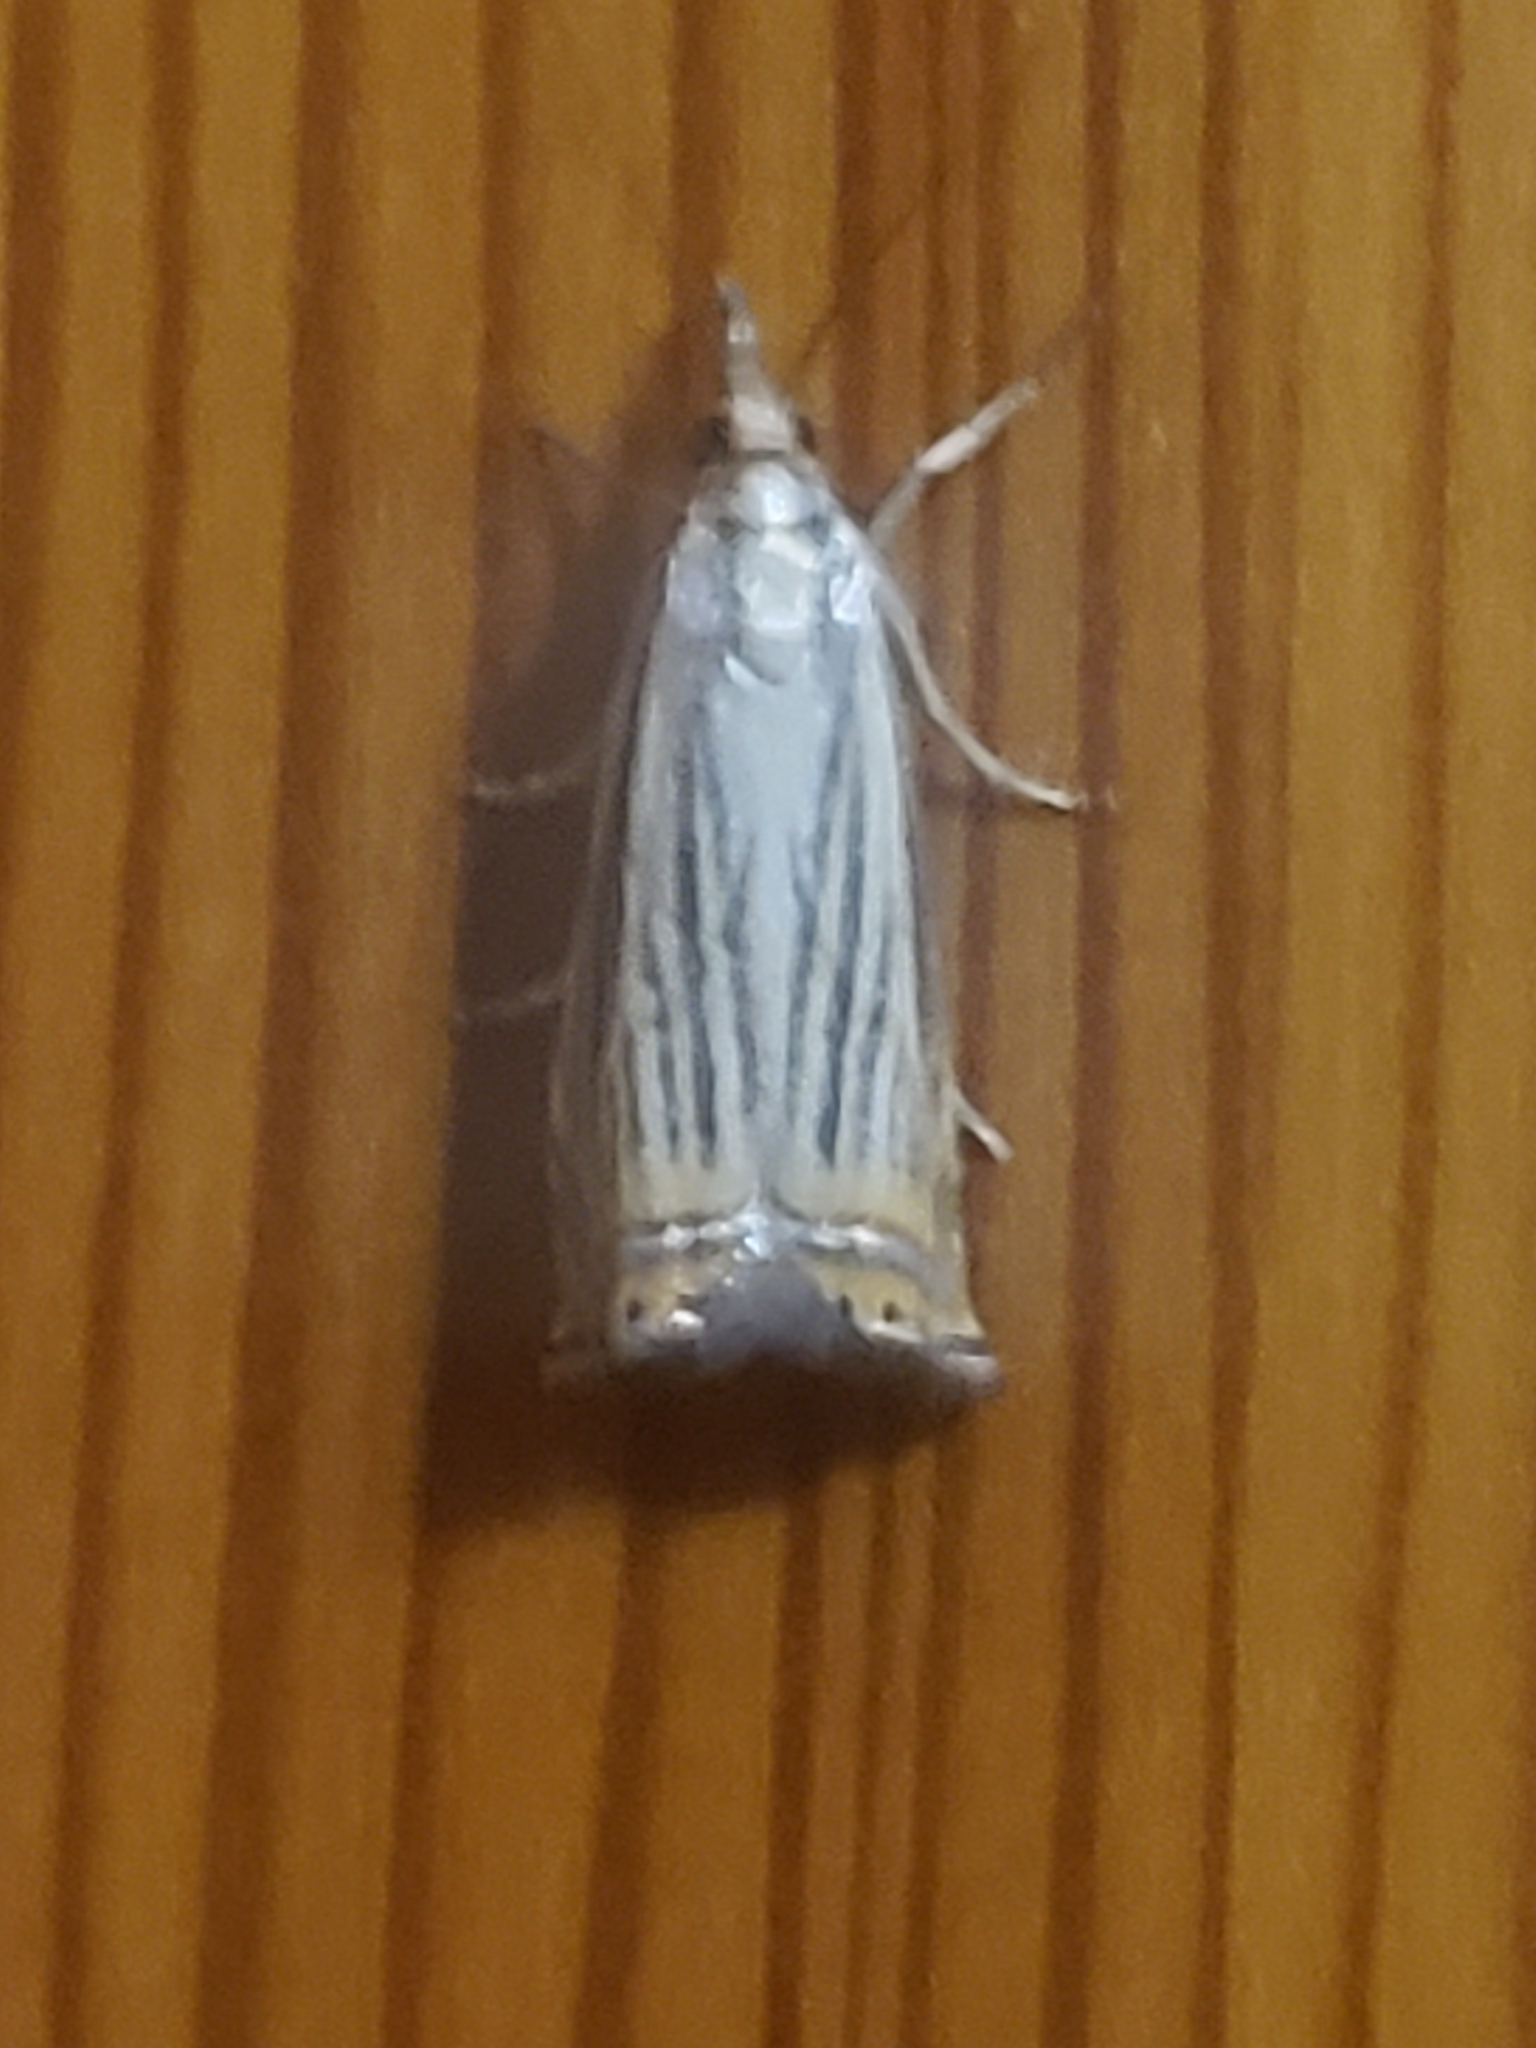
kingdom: Animalia
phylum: Arthropoda
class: Insecta
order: Lepidoptera
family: Crambidae
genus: Chrysoteuchia
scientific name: Chrysoteuchia topiarius
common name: Topiary grass-veneer
